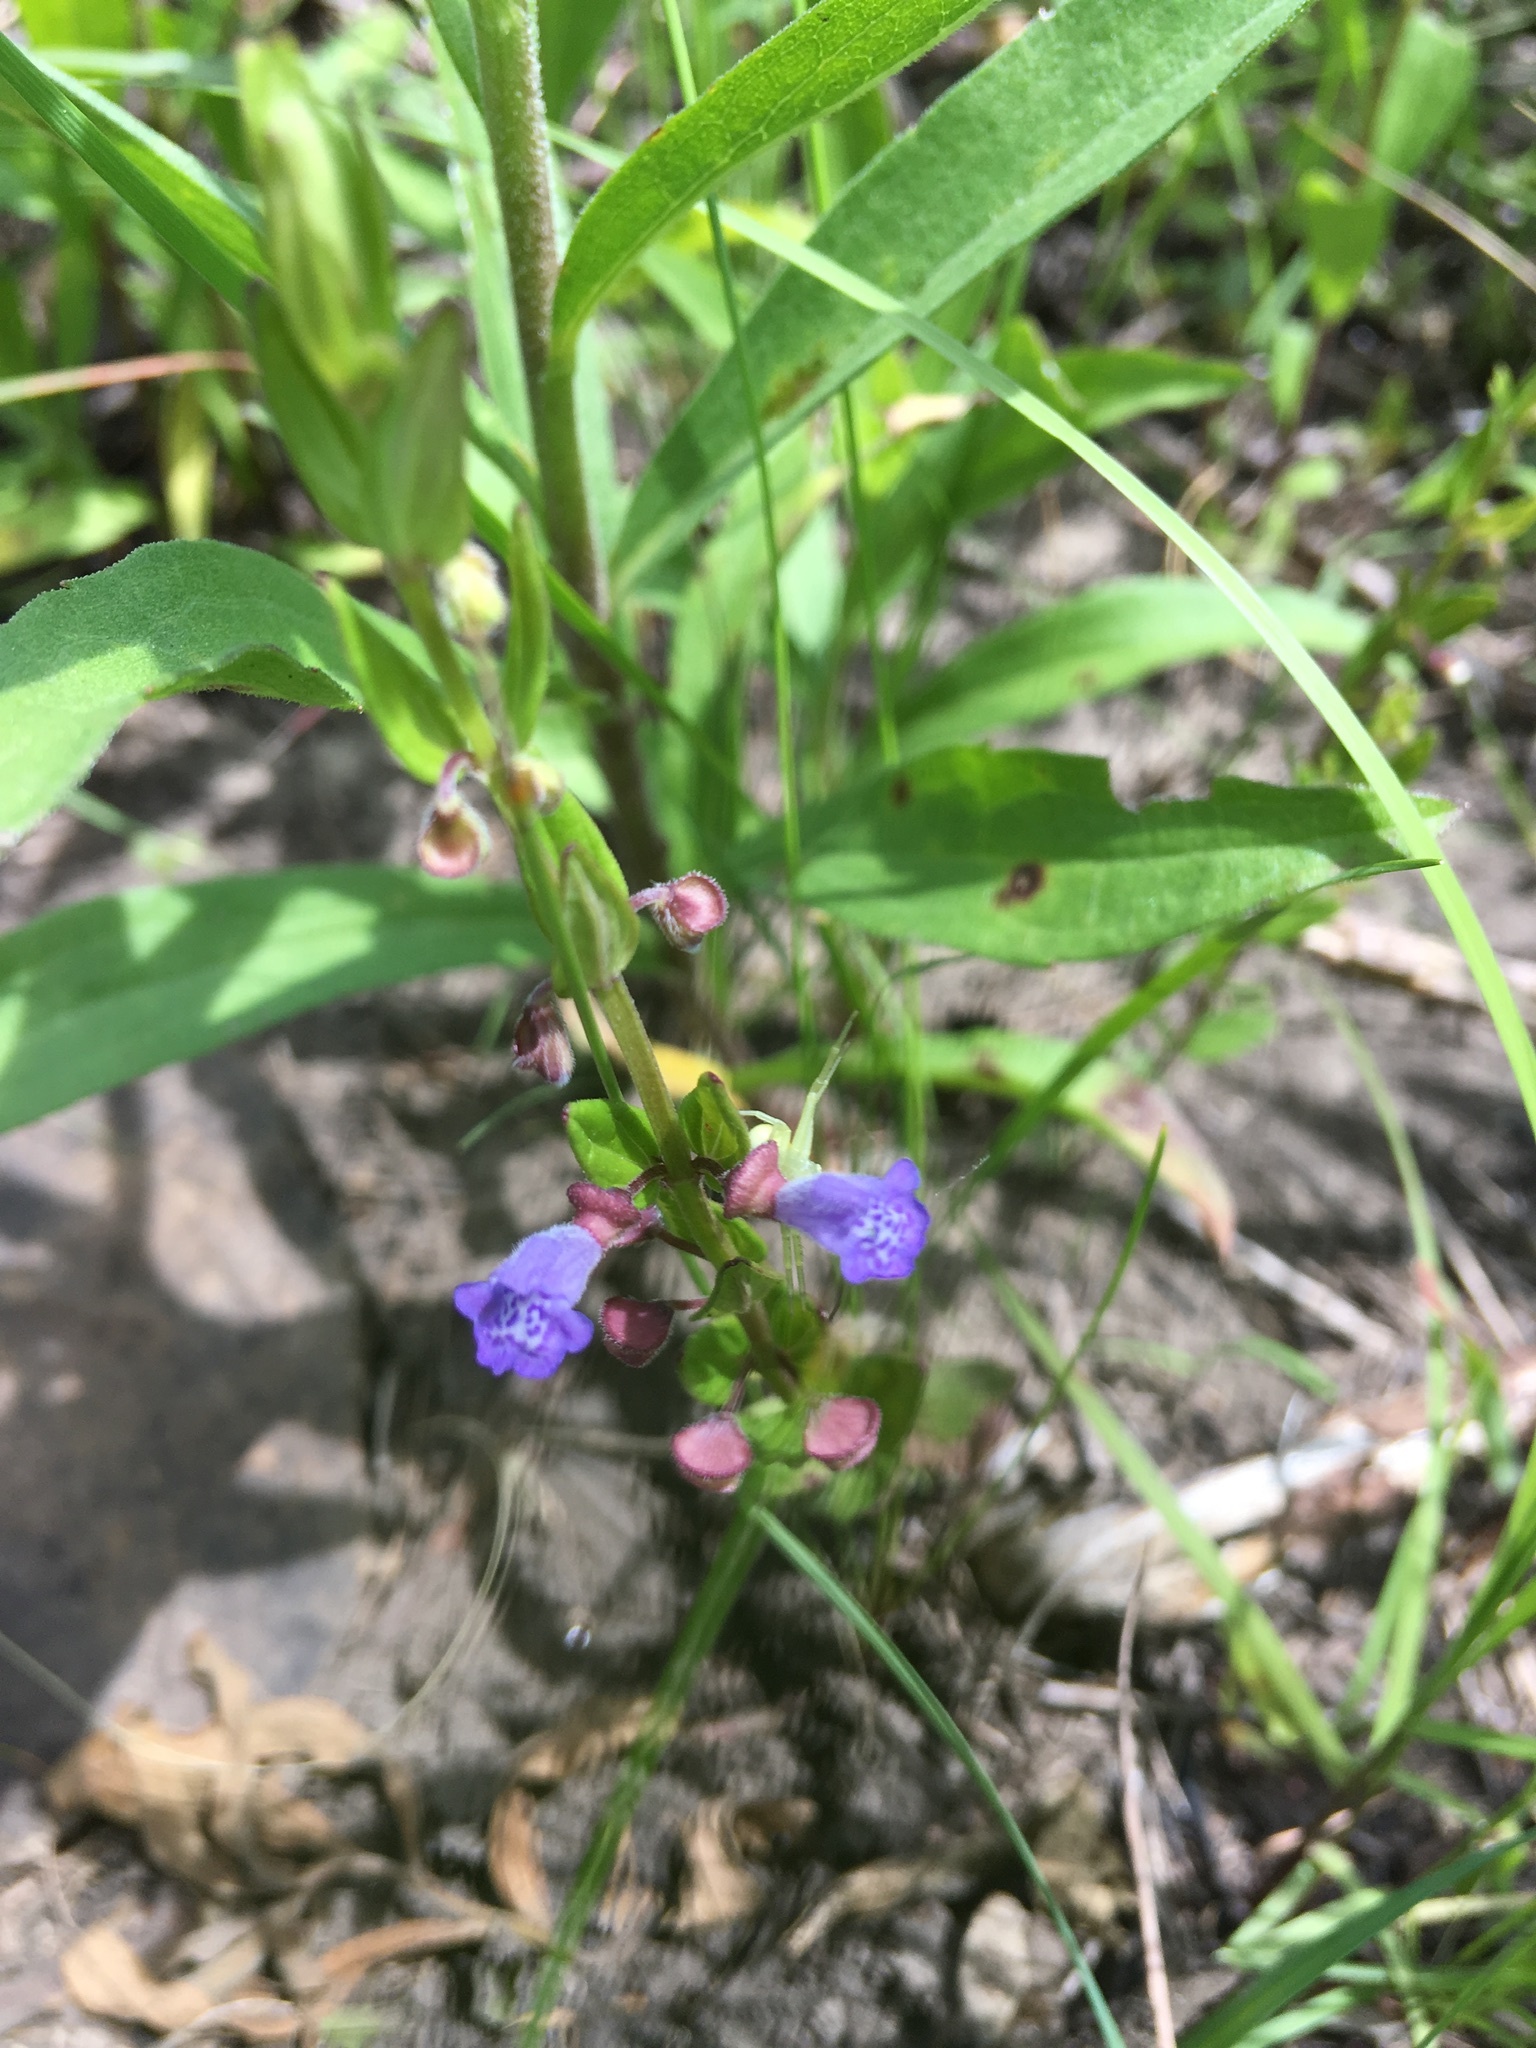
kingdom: Plantae
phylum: Tracheophyta
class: Magnoliopsida
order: Lamiales
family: Lamiaceae
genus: Scutellaria
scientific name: Scutellaria parvula
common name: Little scullcap
